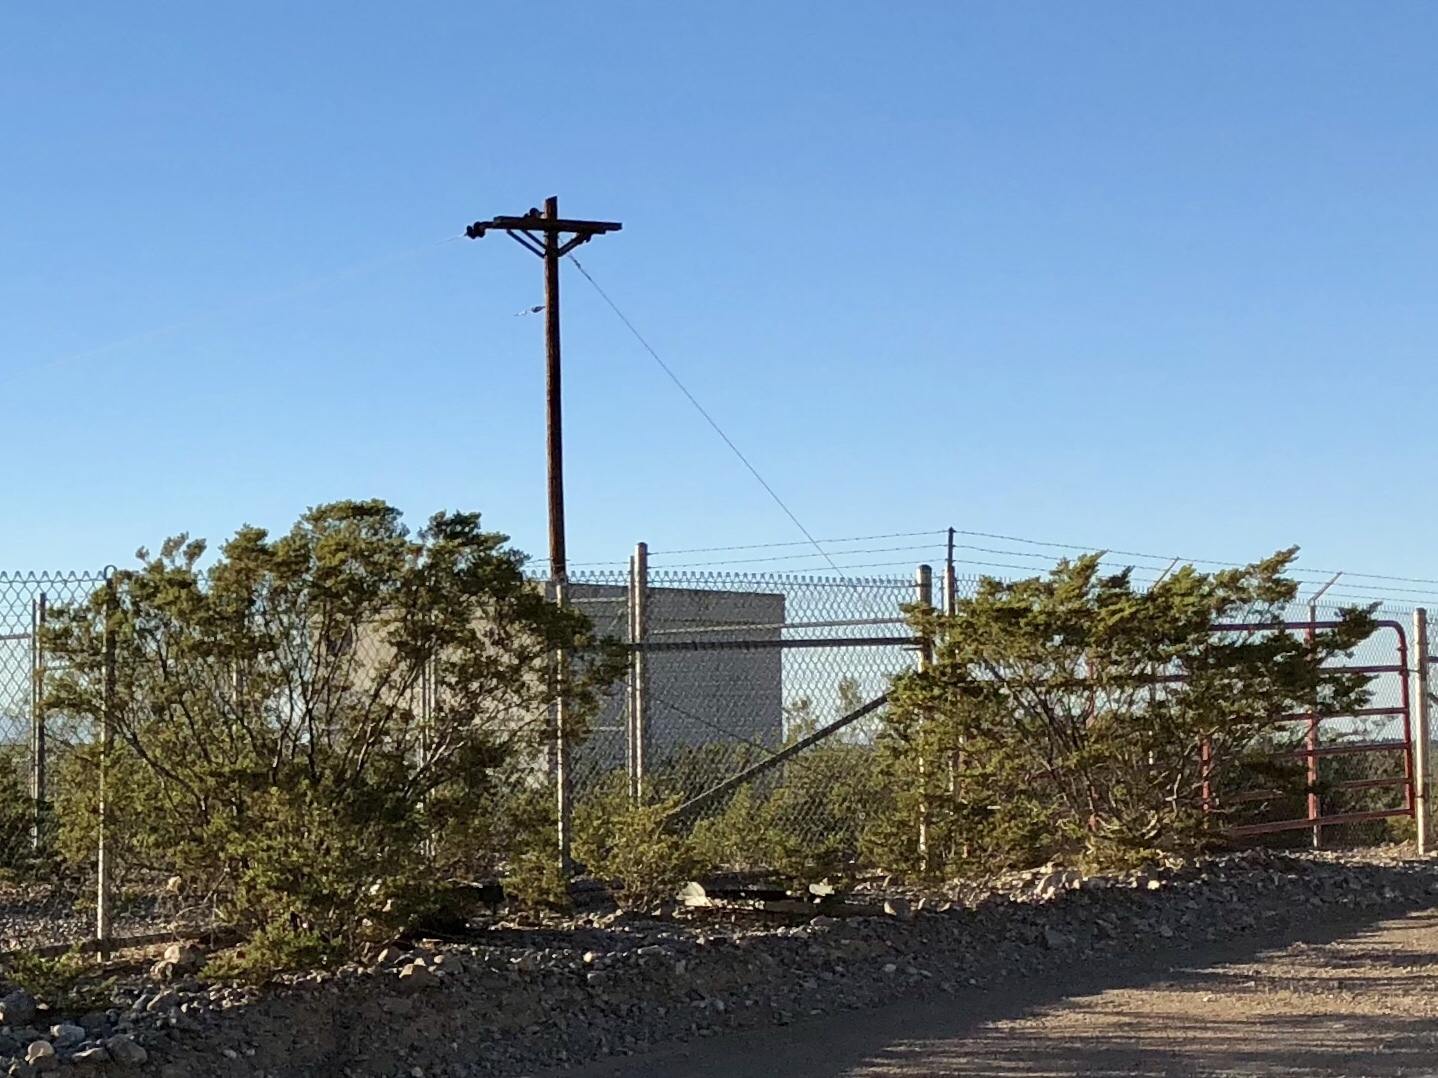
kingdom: Plantae
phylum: Tracheophyta
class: Magnoliopsida
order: Zygophyllales
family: Zygophyllaceae
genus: Larrea
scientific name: Larrea tridentata
